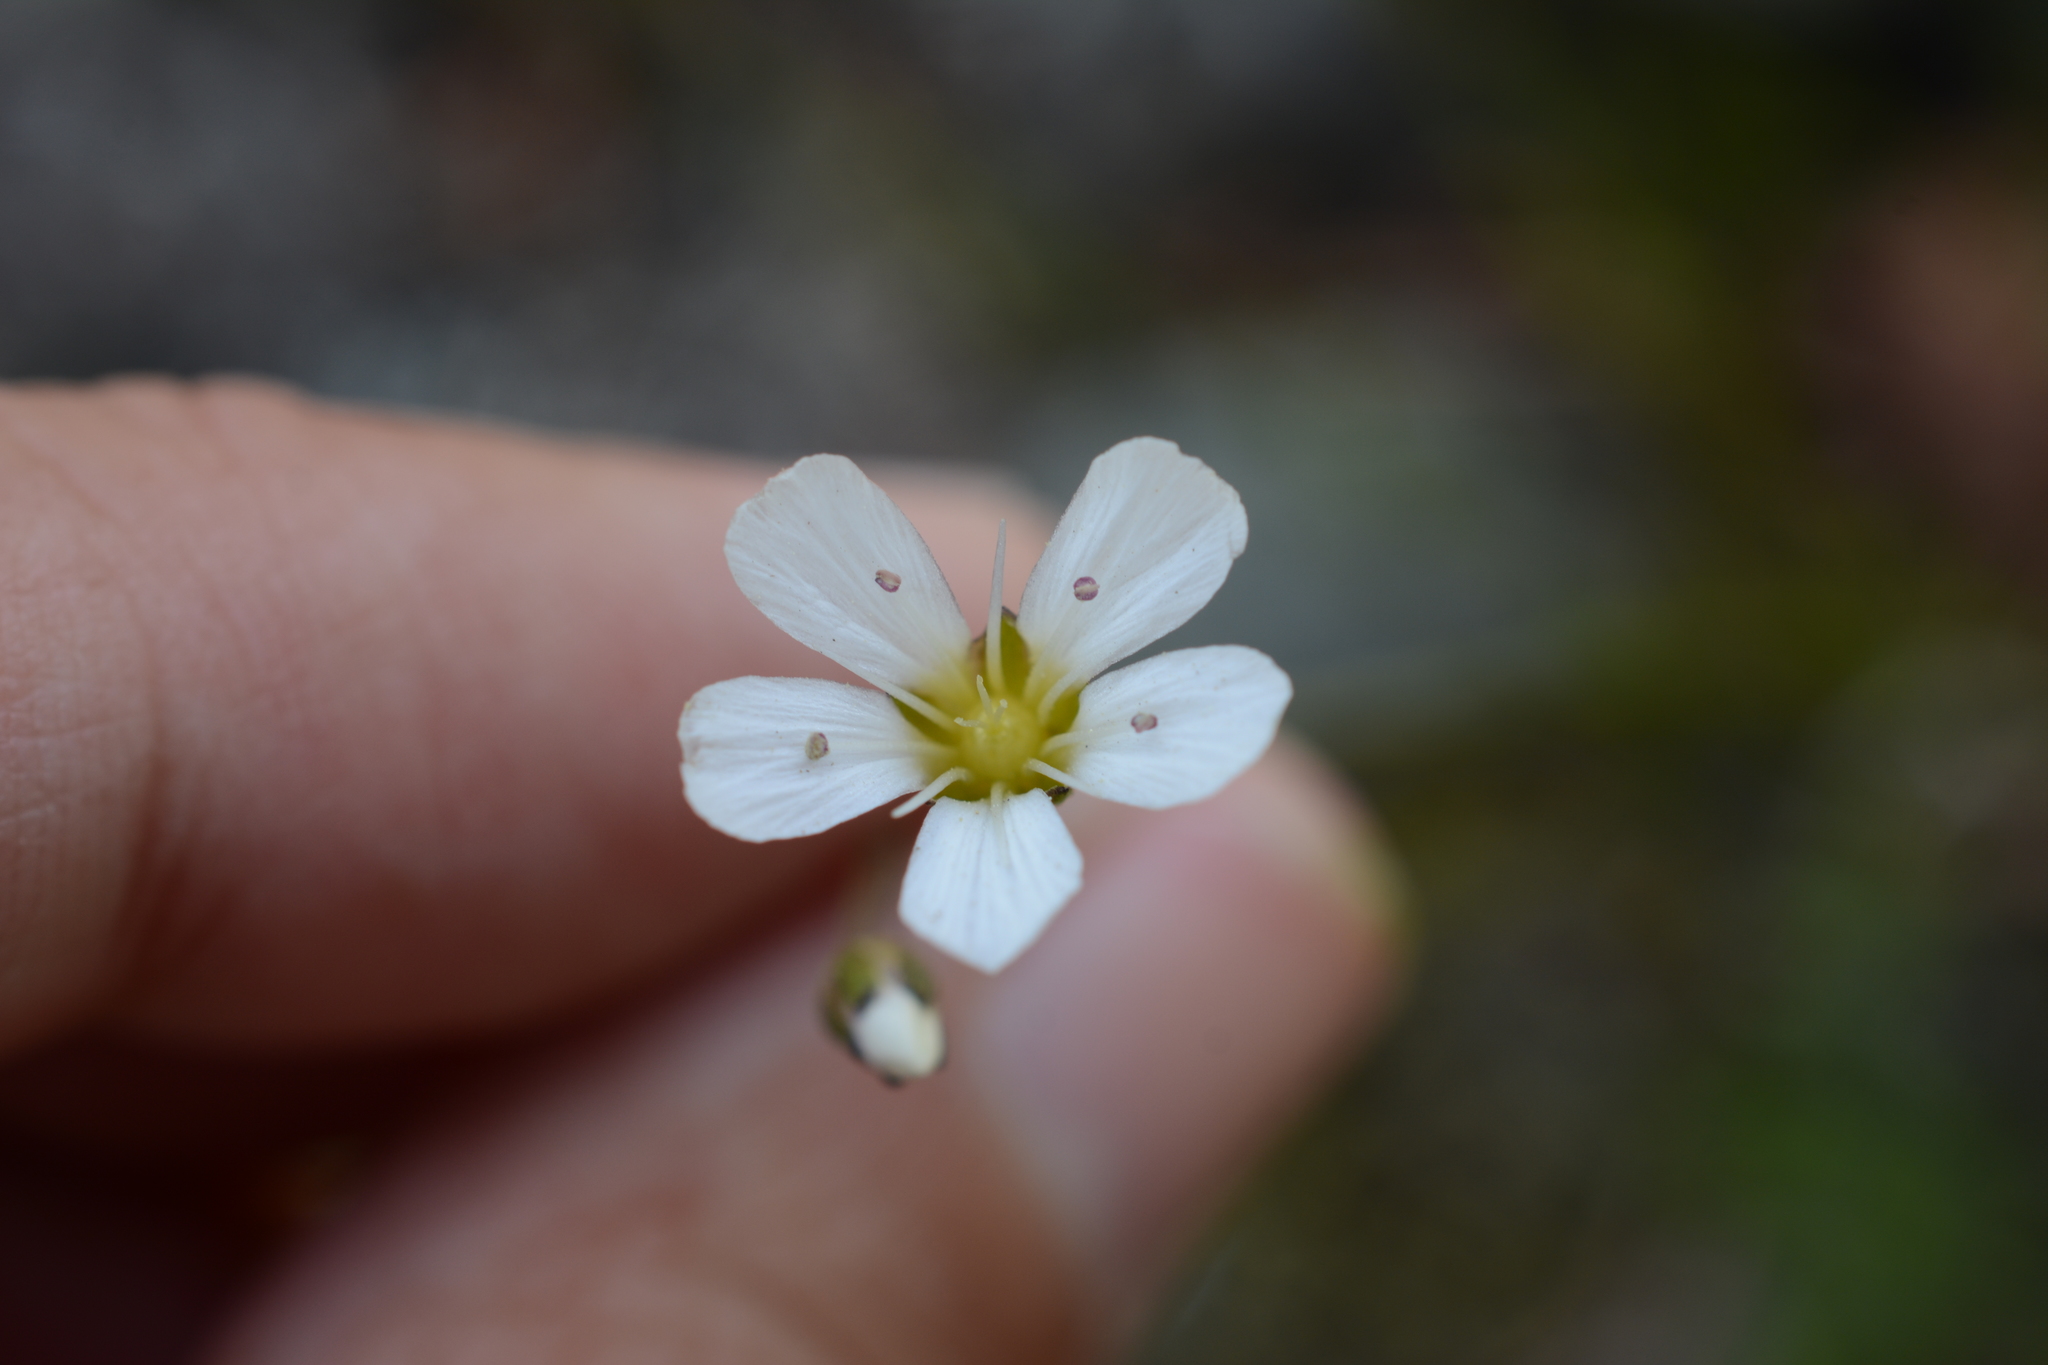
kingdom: Plantae
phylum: Tracheophyta
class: Magnoliopsida
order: Caryophyllales
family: Caryophyllaceae
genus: Eremogone
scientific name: Eremogone capillaris
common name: Slender mountain sandwort
